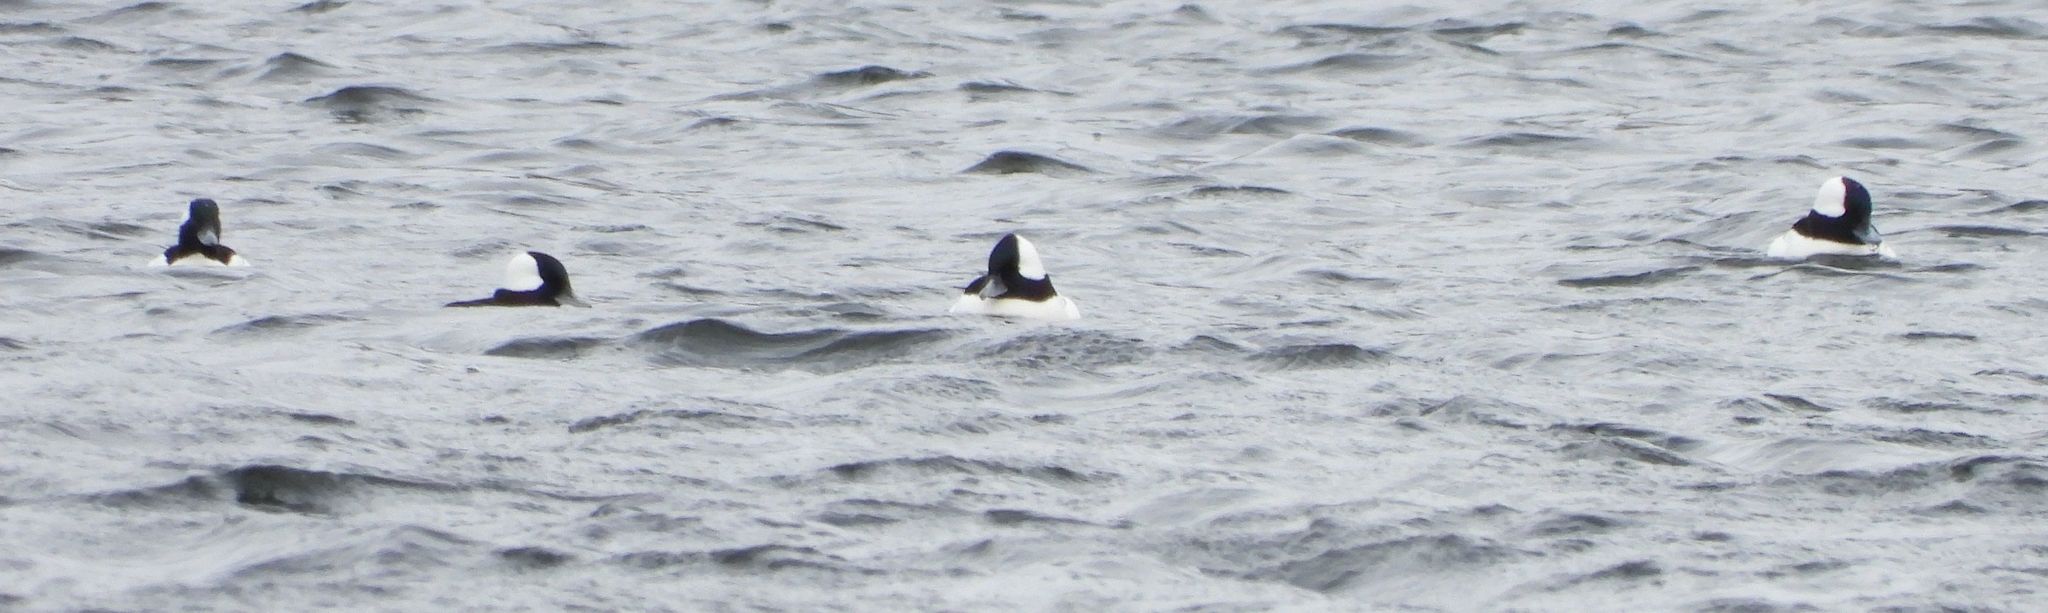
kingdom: Animalia
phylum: Chordata
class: Aves
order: Anseriformes
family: Anatidae
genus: Bucephala
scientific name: Bucephala albeola
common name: Bufflehead
